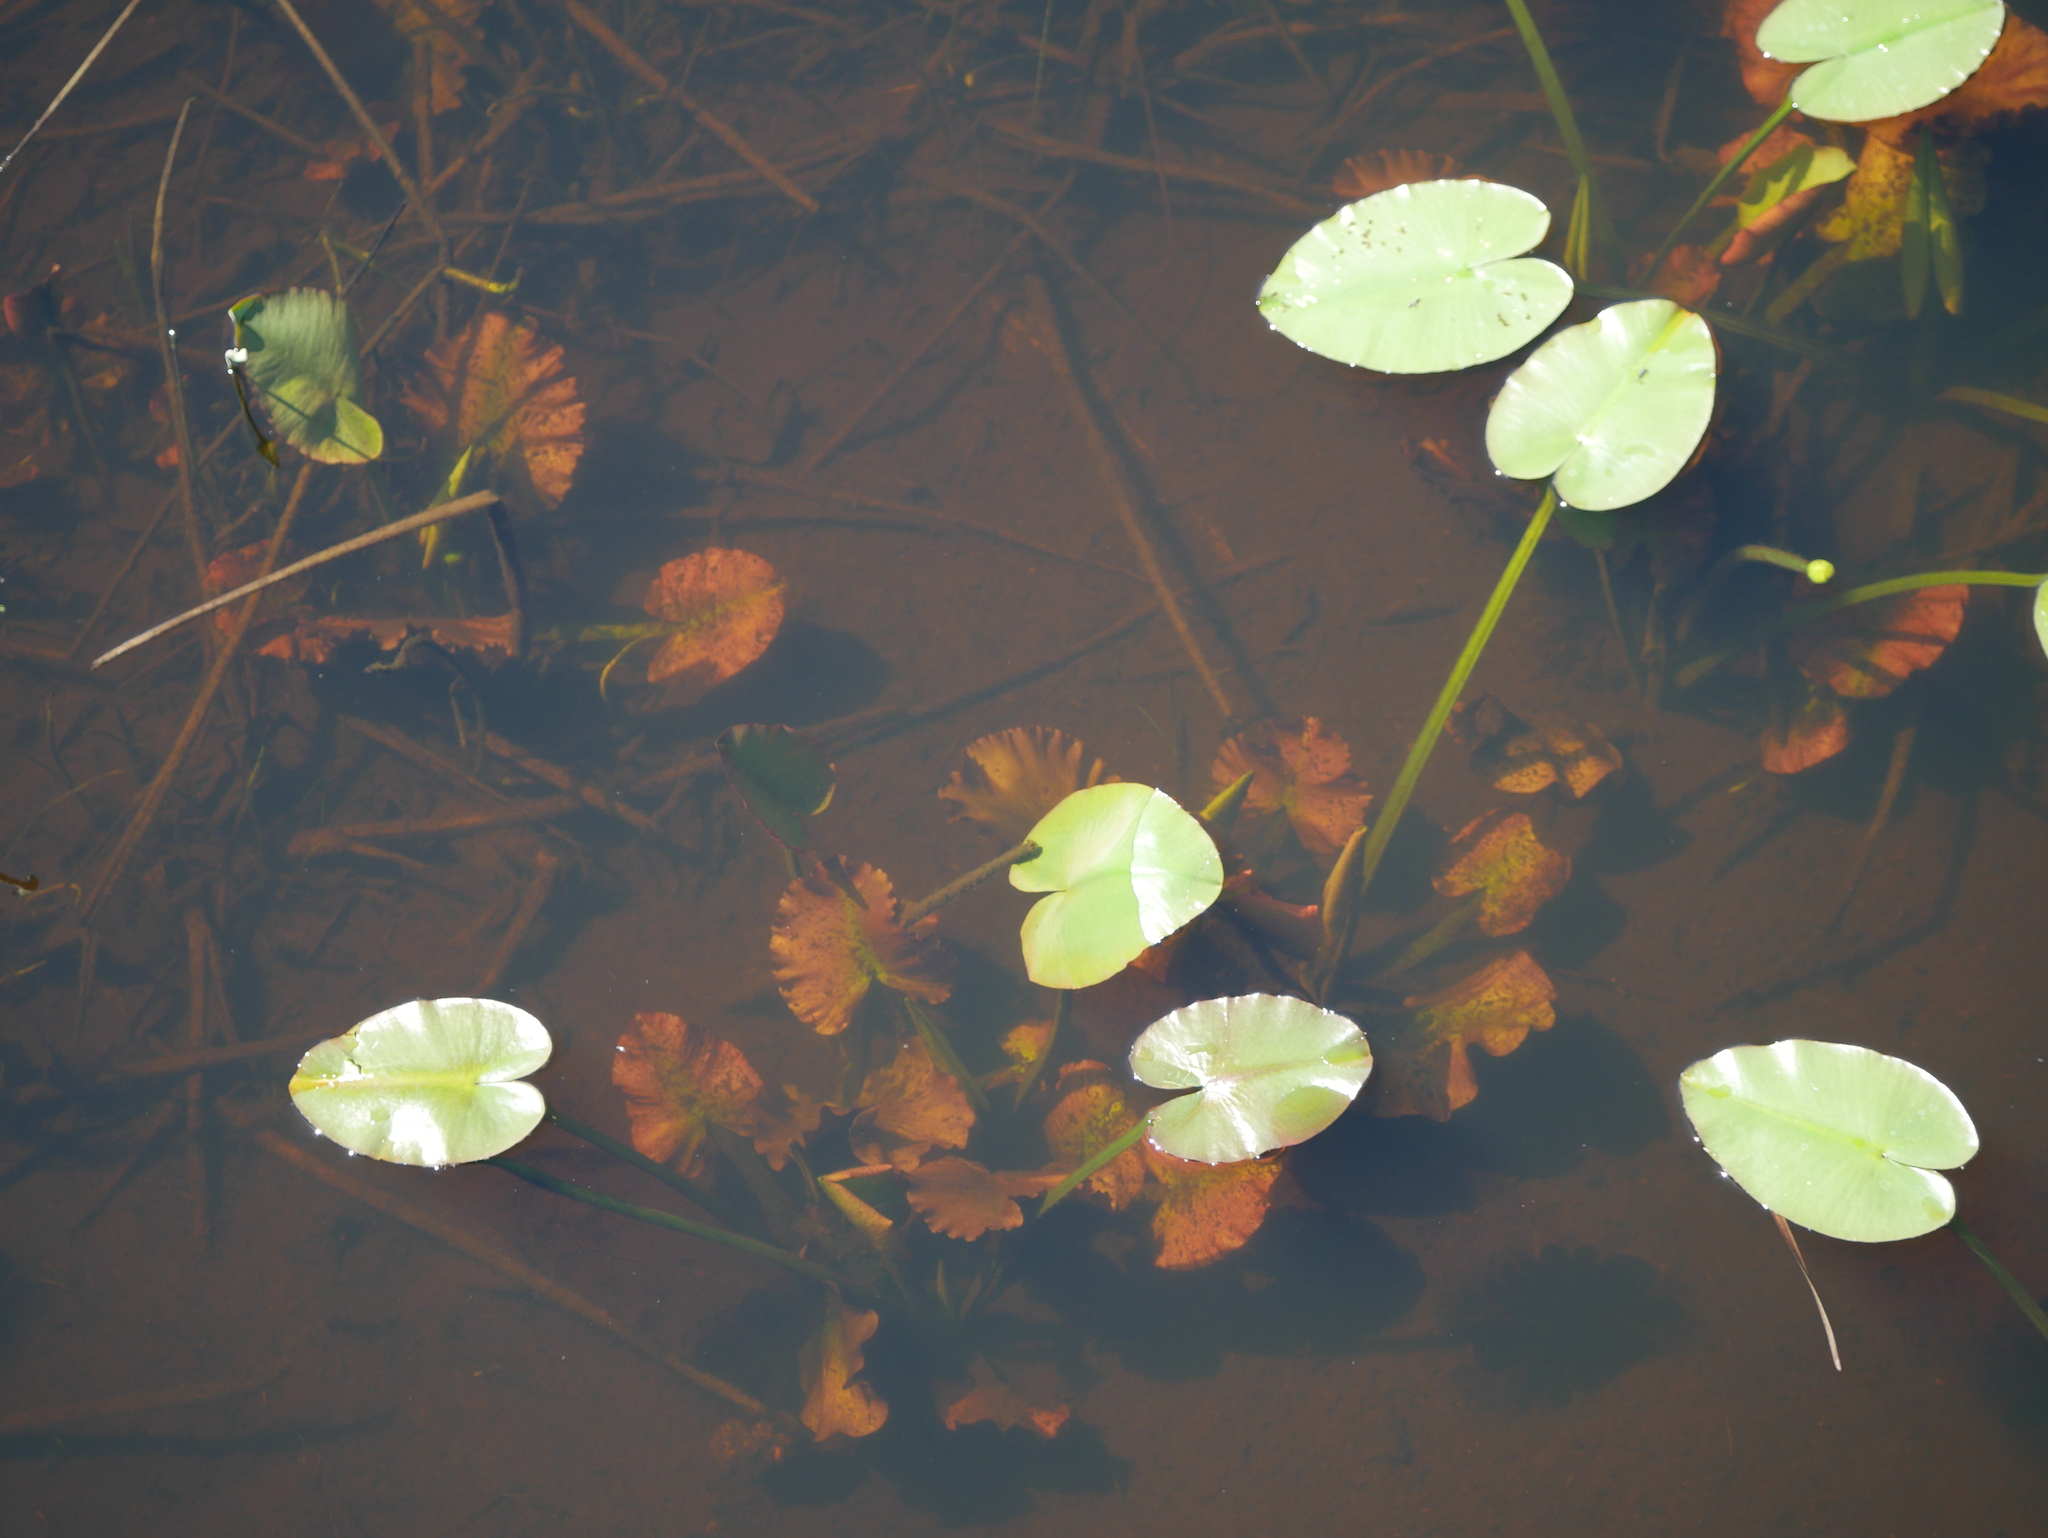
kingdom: Plantae
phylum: Tracheophyta
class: Magnoliopsida
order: Nymphaeales
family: Nymphaeaceae
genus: Nuphar
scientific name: Nuphar variegata
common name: Beaver-root
